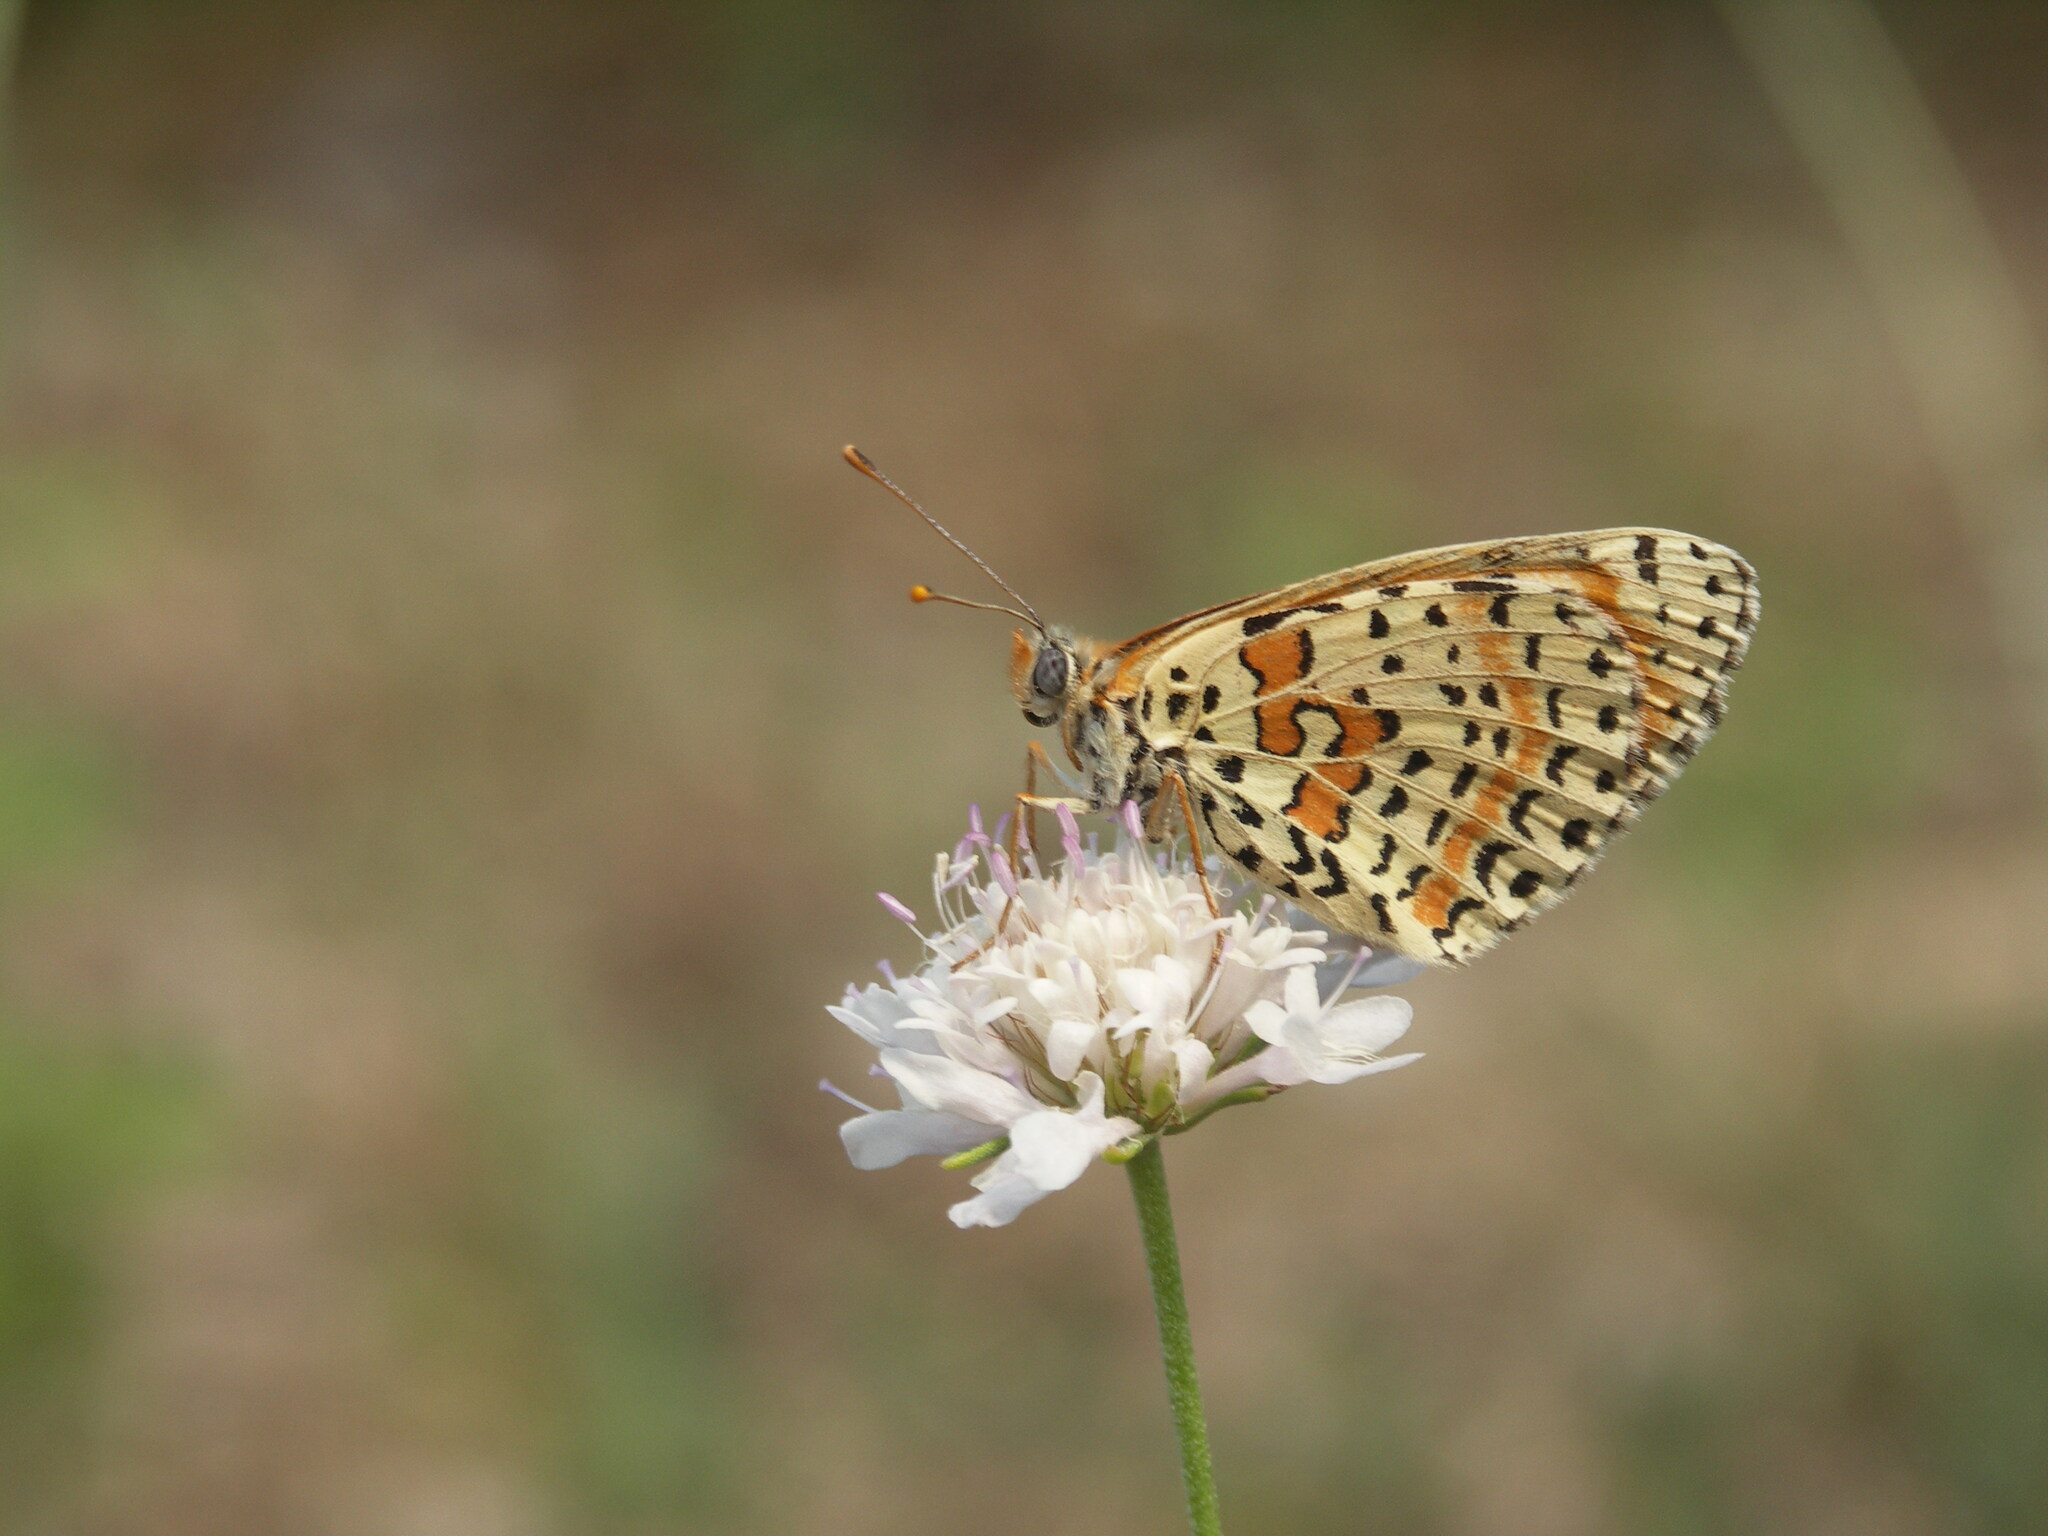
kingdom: Animalia
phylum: Arthropoda
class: Insecta
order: Lepidoptera
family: Nymphalidae
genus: Melitaea
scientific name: Melitaea didyma
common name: Spotted fritillary
